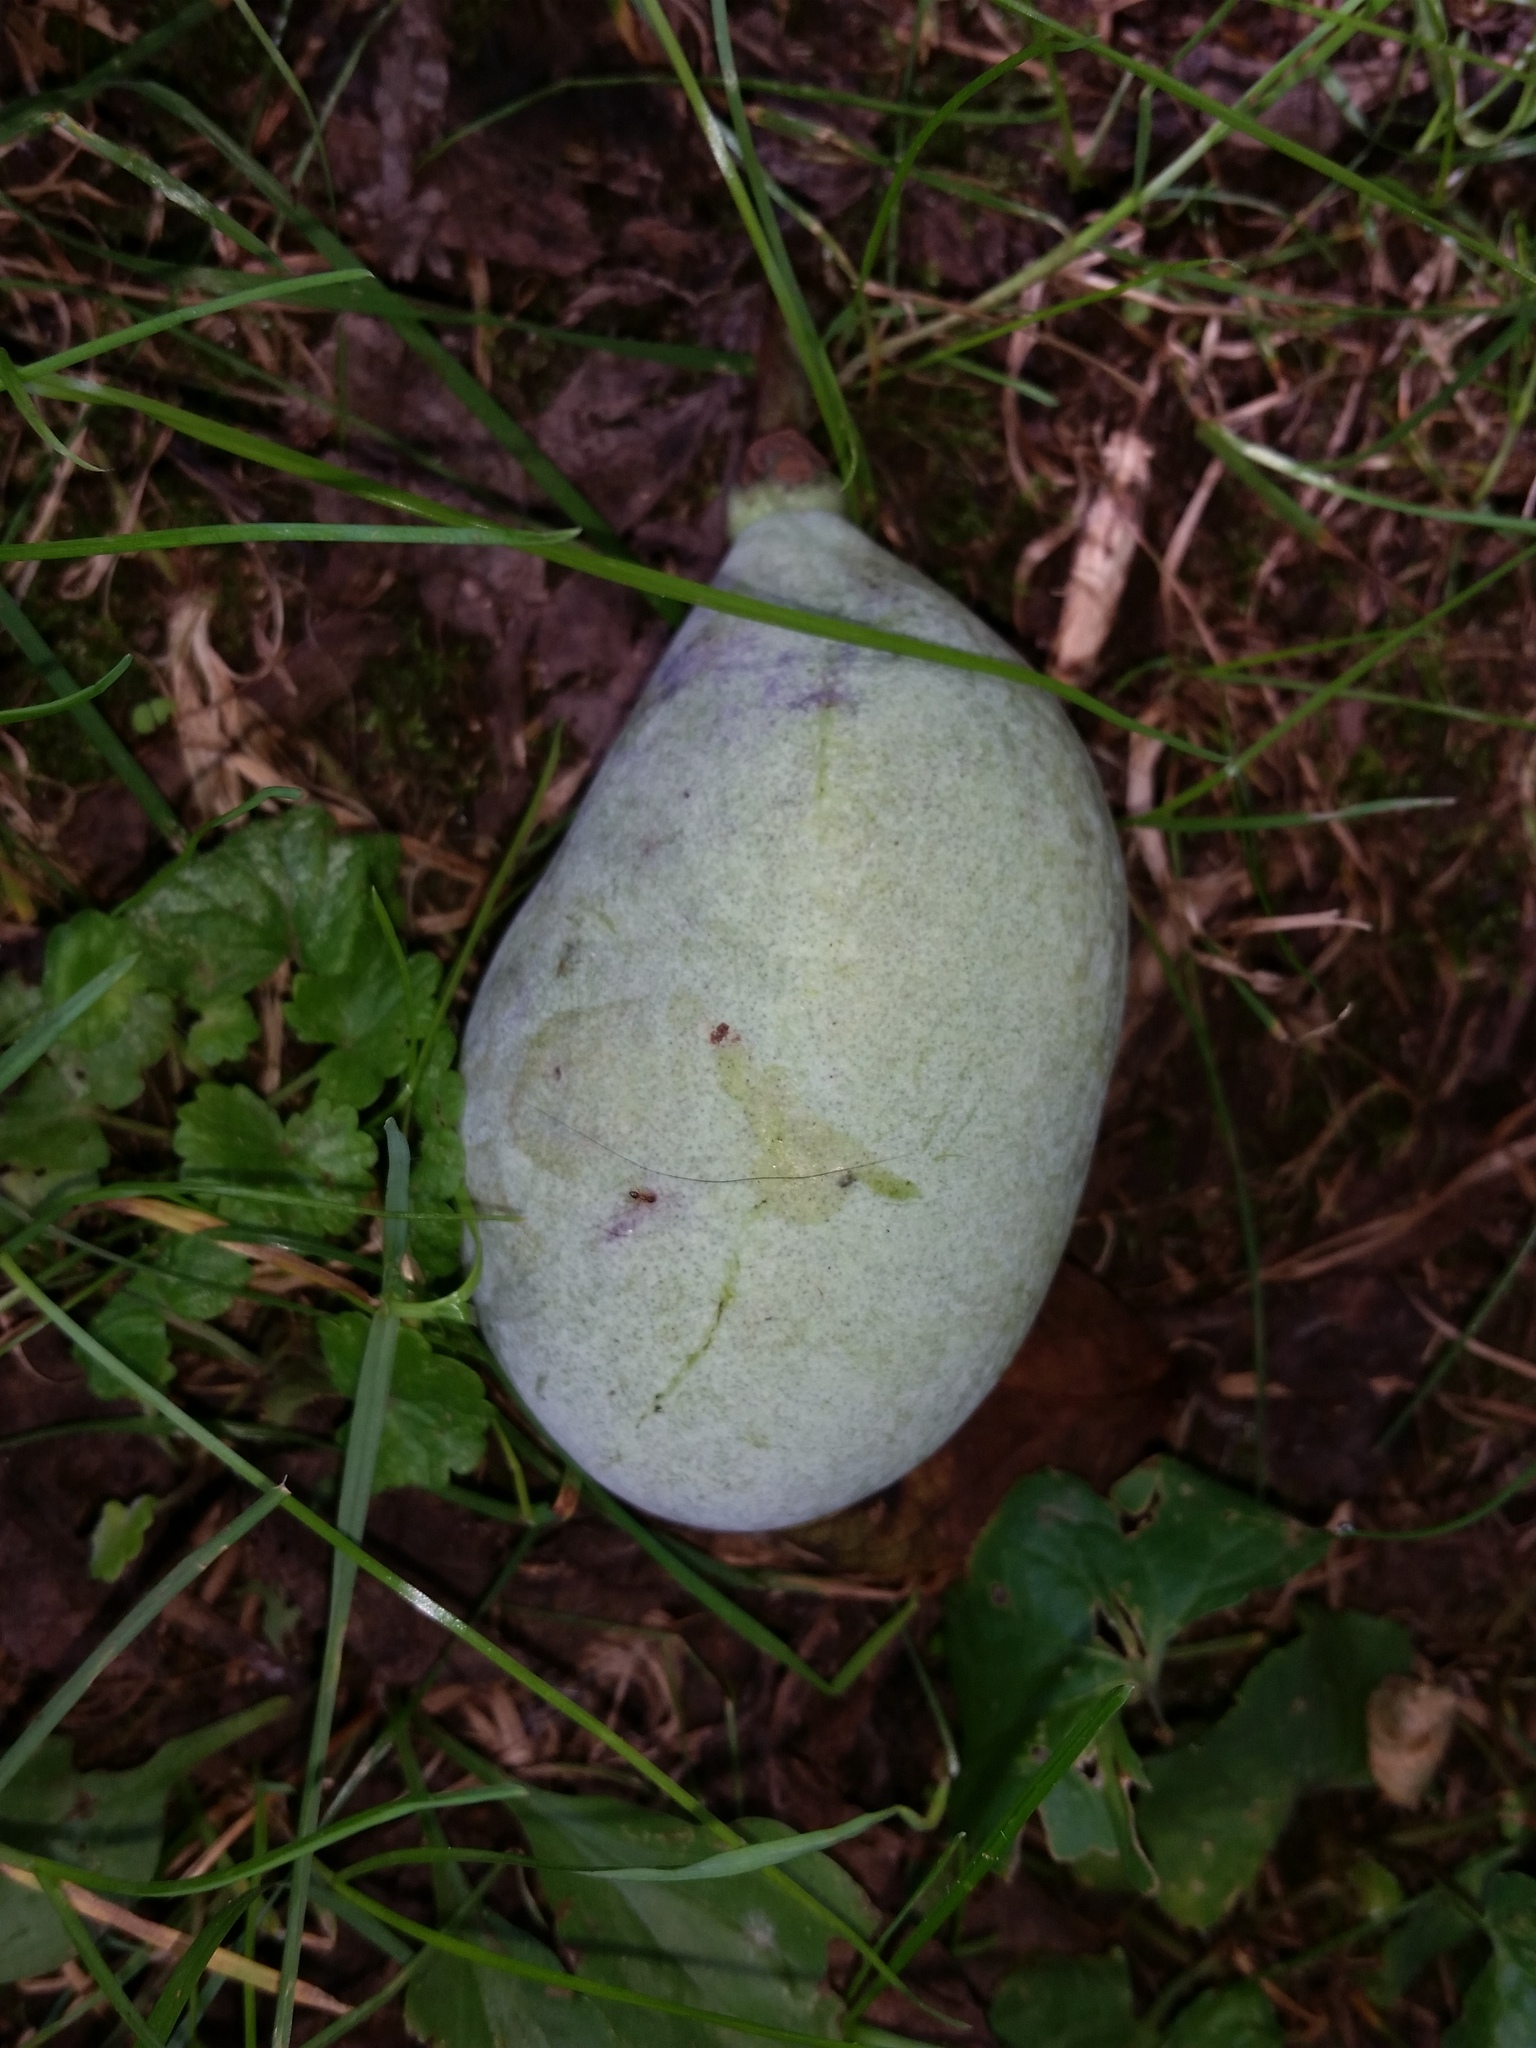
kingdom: Plantae
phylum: Tracheophyta
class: Magnoliopsida
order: Magnoliales
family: Annonaceae
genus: Asimina
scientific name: Asimina triloba
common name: Dog-banana
